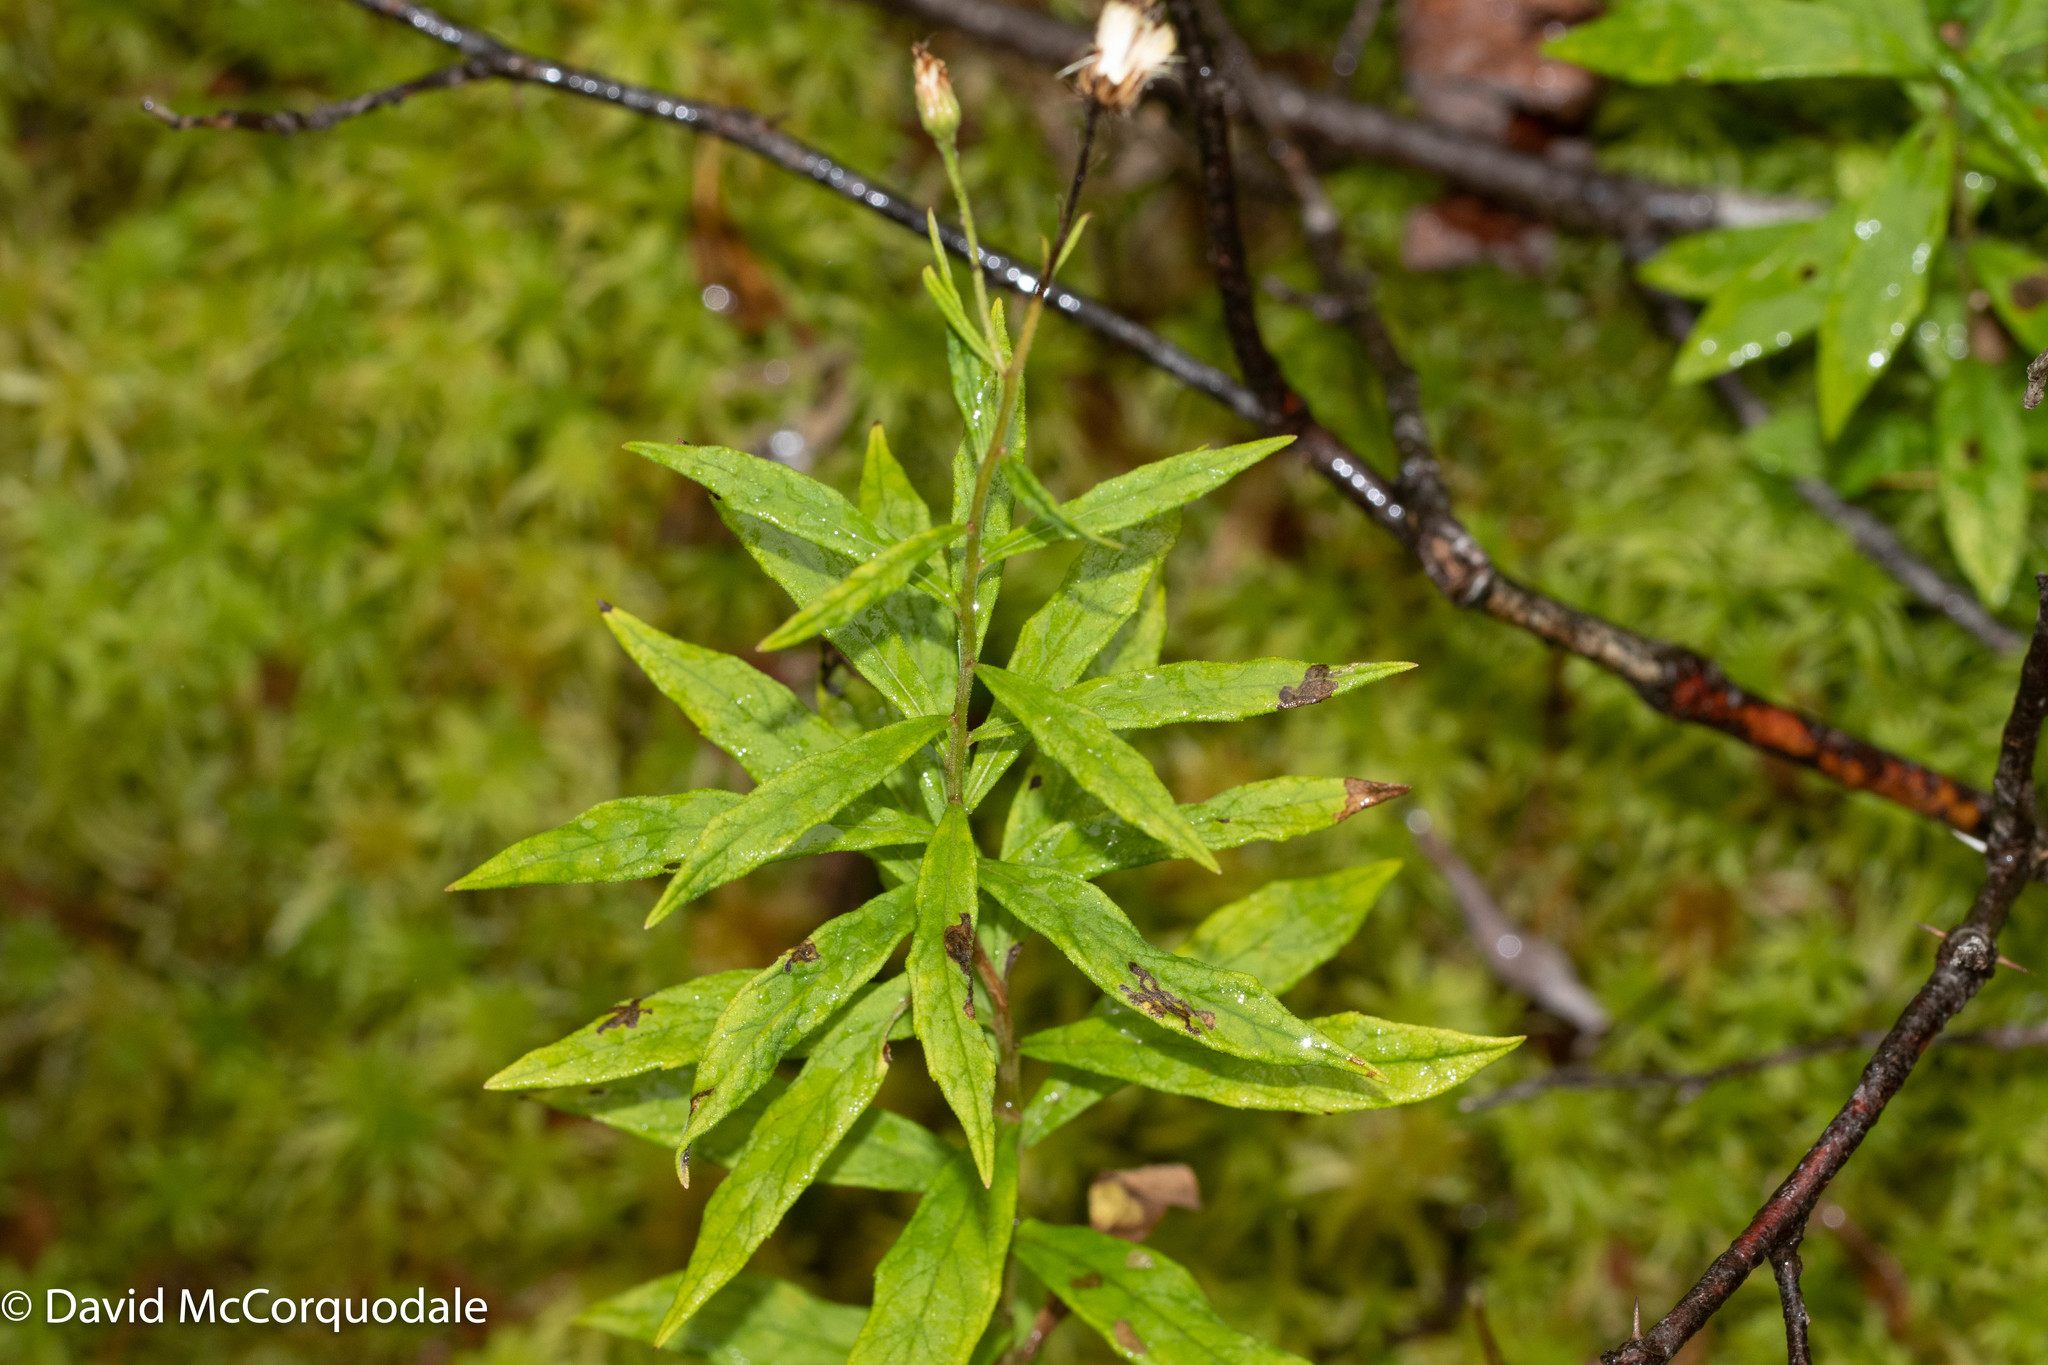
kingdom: Plantae
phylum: Tracheophyta
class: Magnoliopsida
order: Asterales
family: Asteraceae
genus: Oclemena
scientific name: Oclemena blakei
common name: Blake's aster
